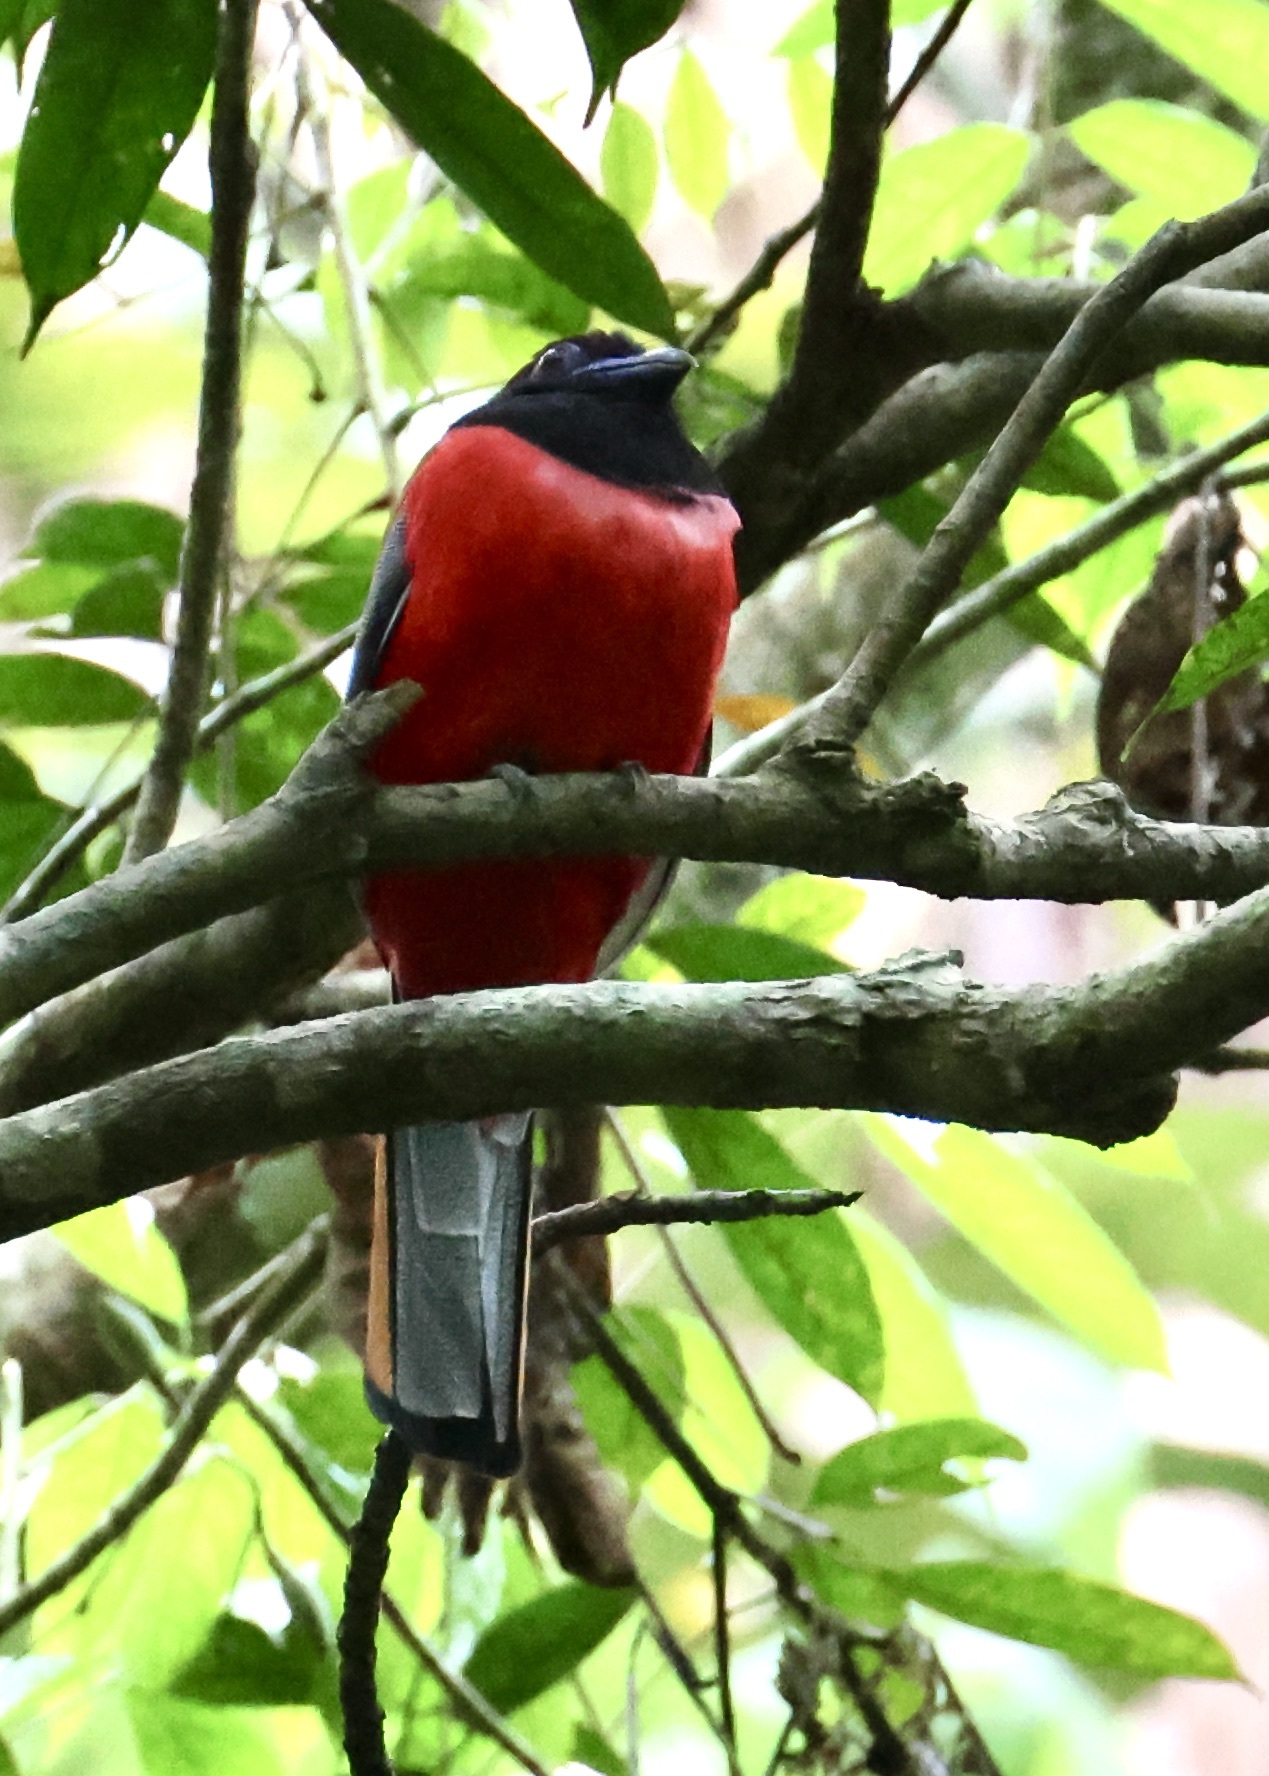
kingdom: Animalia
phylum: Chordata
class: Aves
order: Trogoniformes
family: Trogonidae
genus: Harpactes
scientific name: Harpactes diardii
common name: Diard's trogon
